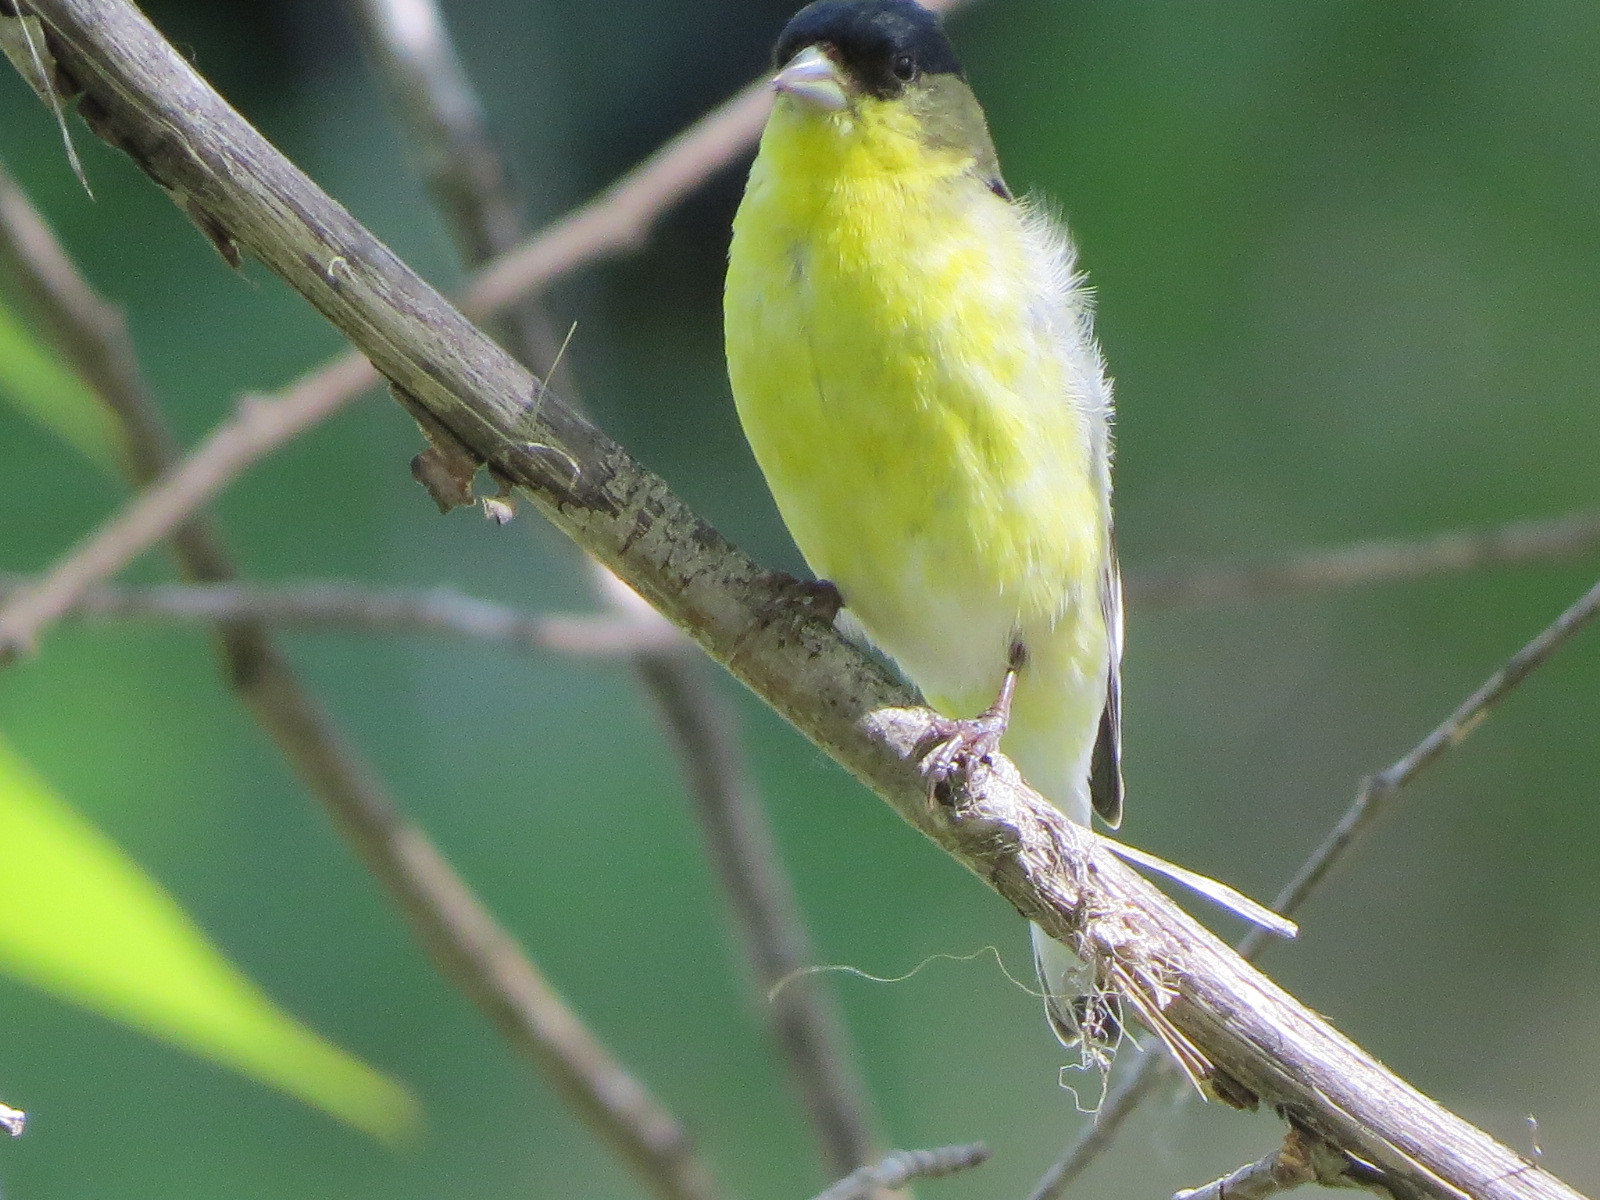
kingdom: Animalia
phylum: Chordata
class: Aves
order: Passeriformes
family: Fringillidae
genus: Spinus
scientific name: Spinus psaltria
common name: Lesser goldfinch
